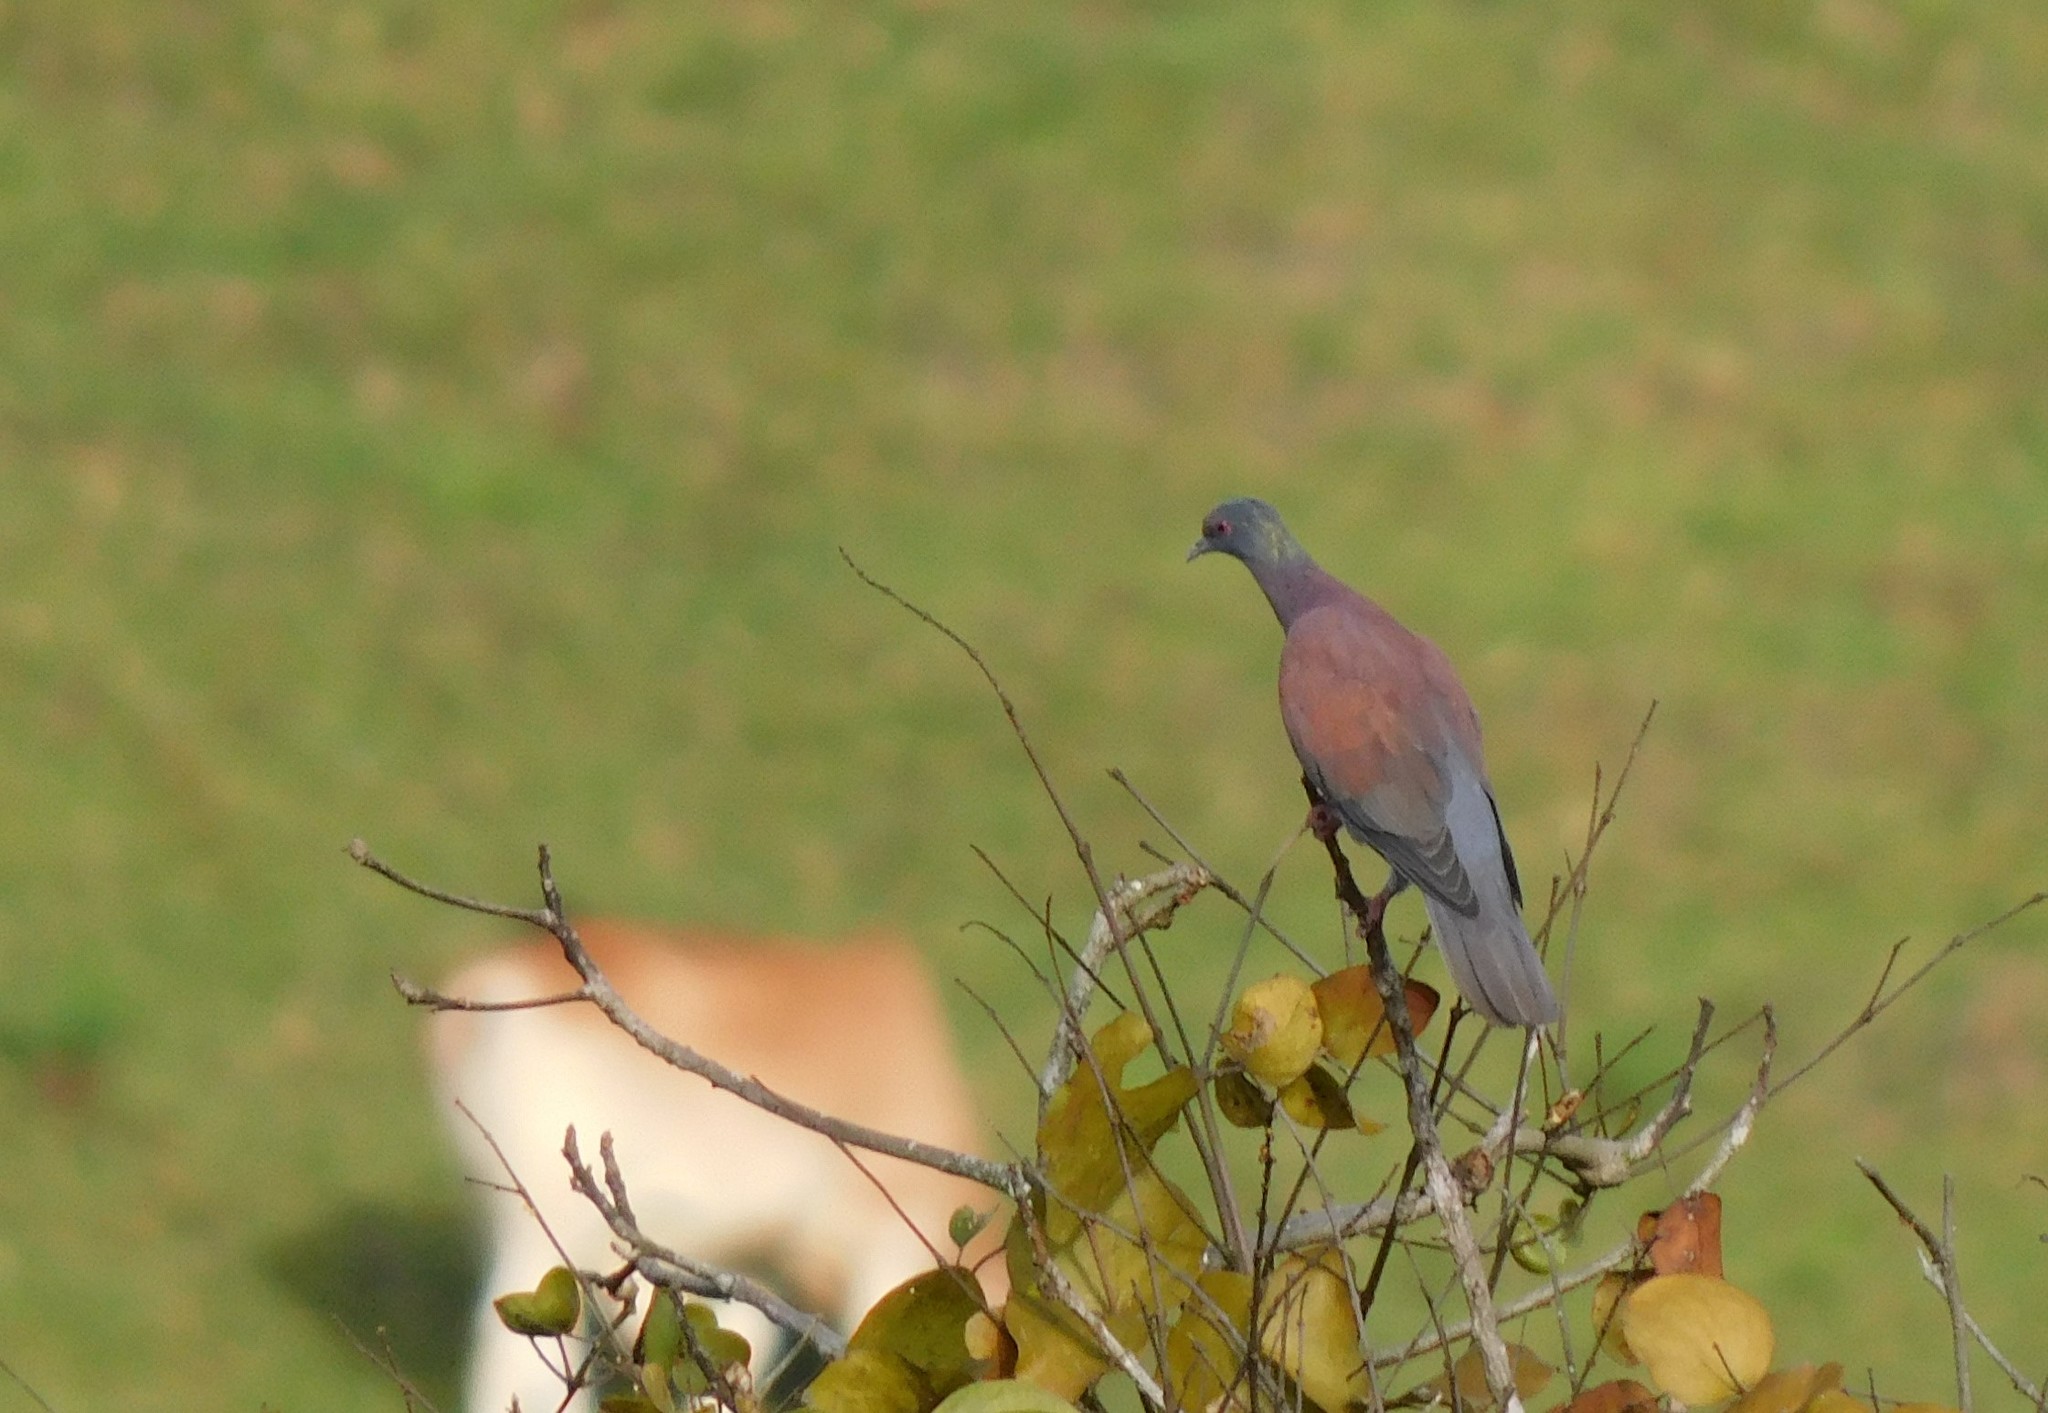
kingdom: Animalia
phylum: Chordata
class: Aves
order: Columbiformes
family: Columbidae
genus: Patagioenas
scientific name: Patagioenas cayennensis
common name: Pale-vented pigeon
